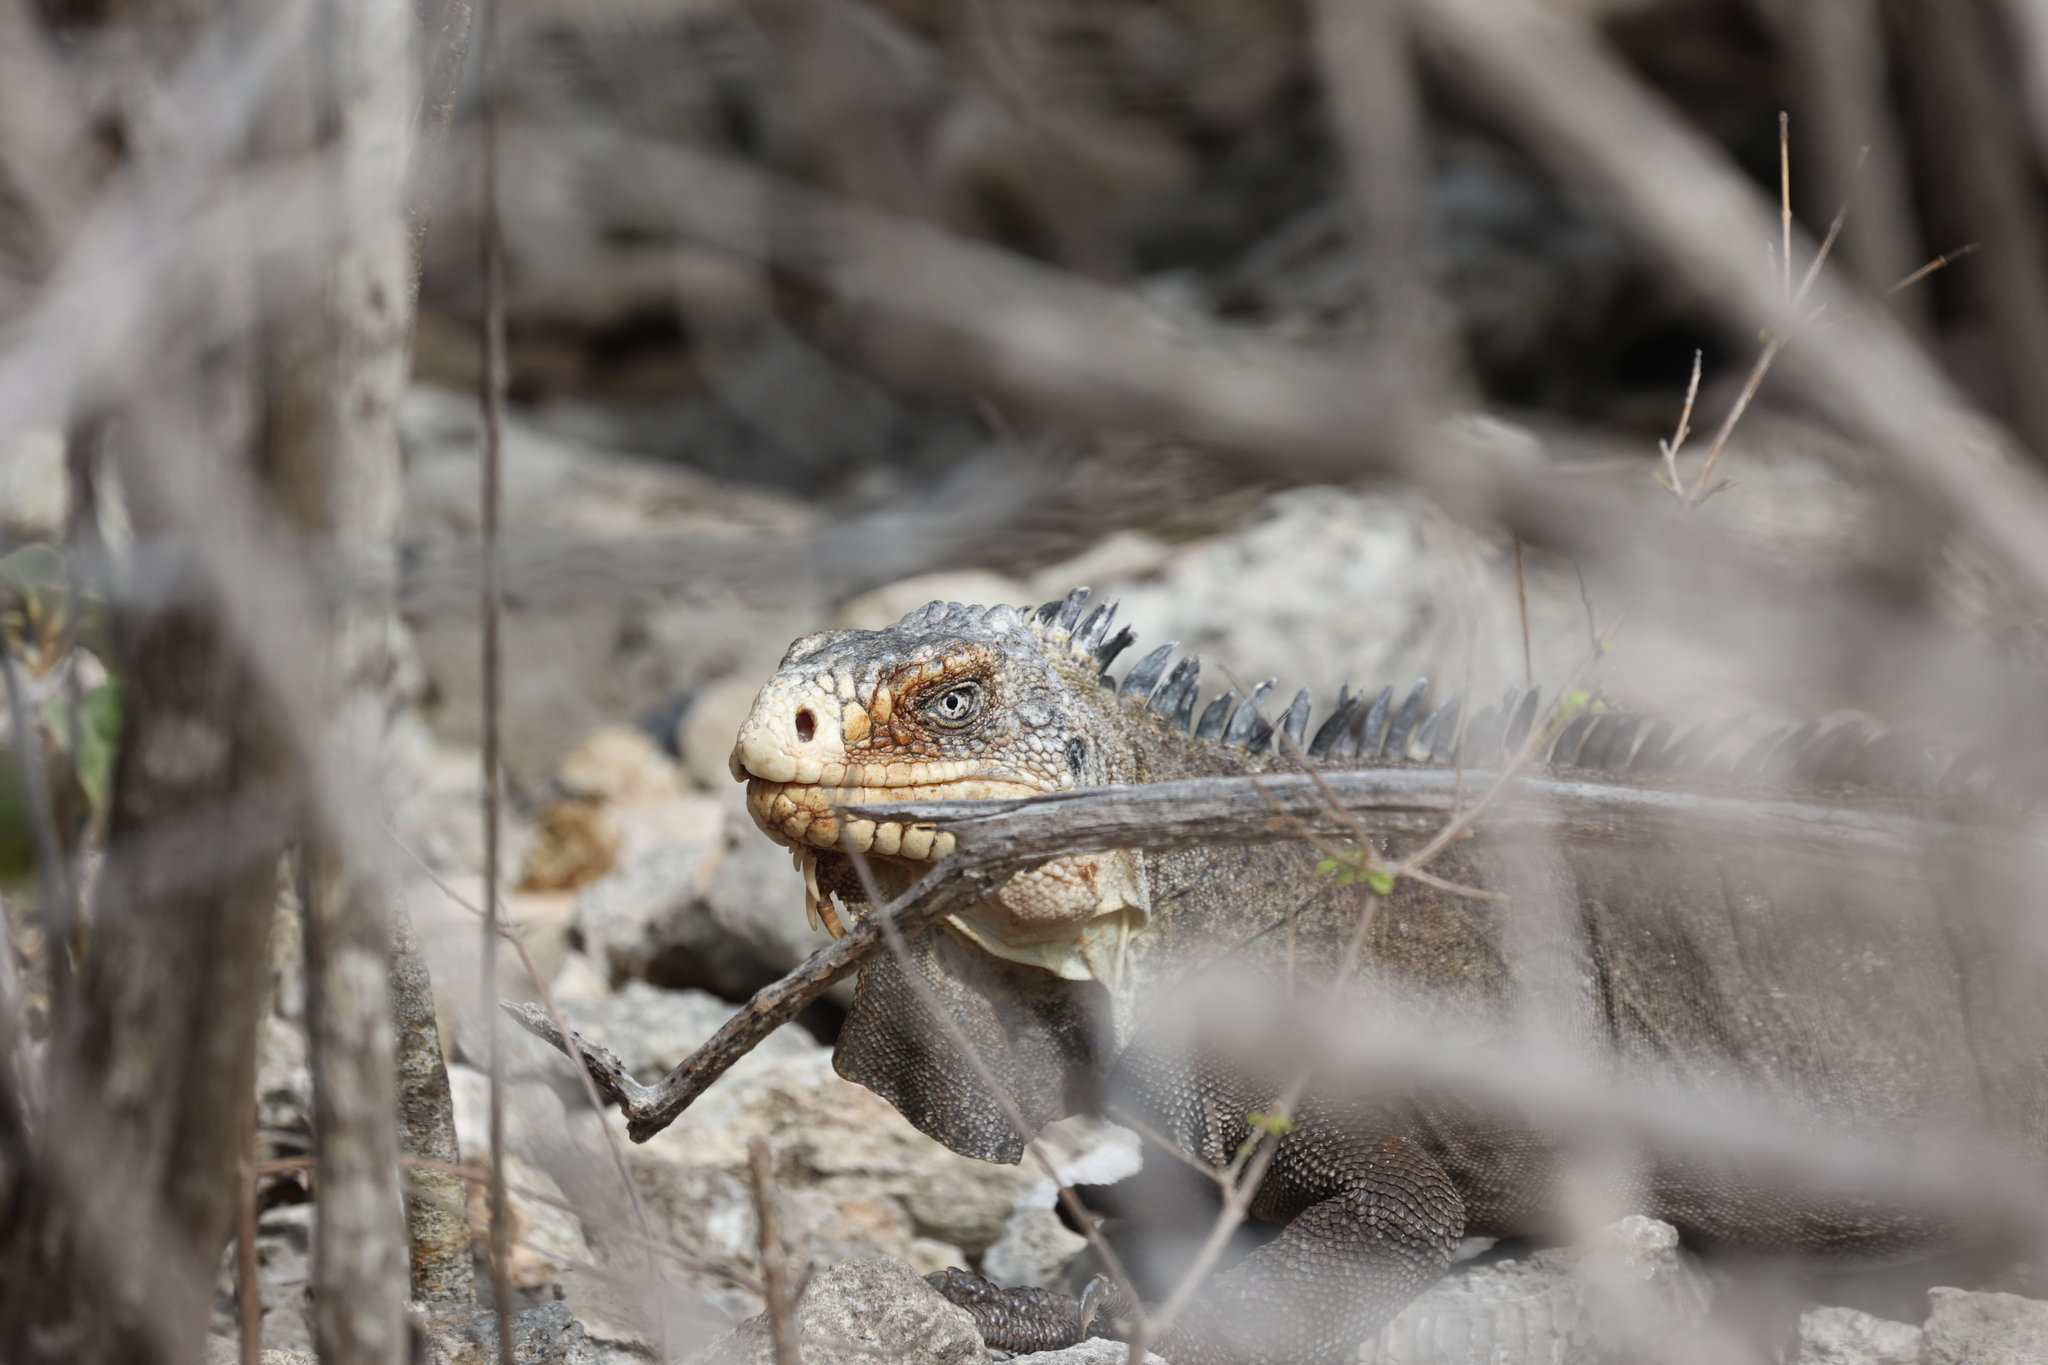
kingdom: Animalia
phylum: Chordata
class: Squamata
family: Iguanidae
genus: Iguana
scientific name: Iguana delicatissima
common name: West indian iguana
